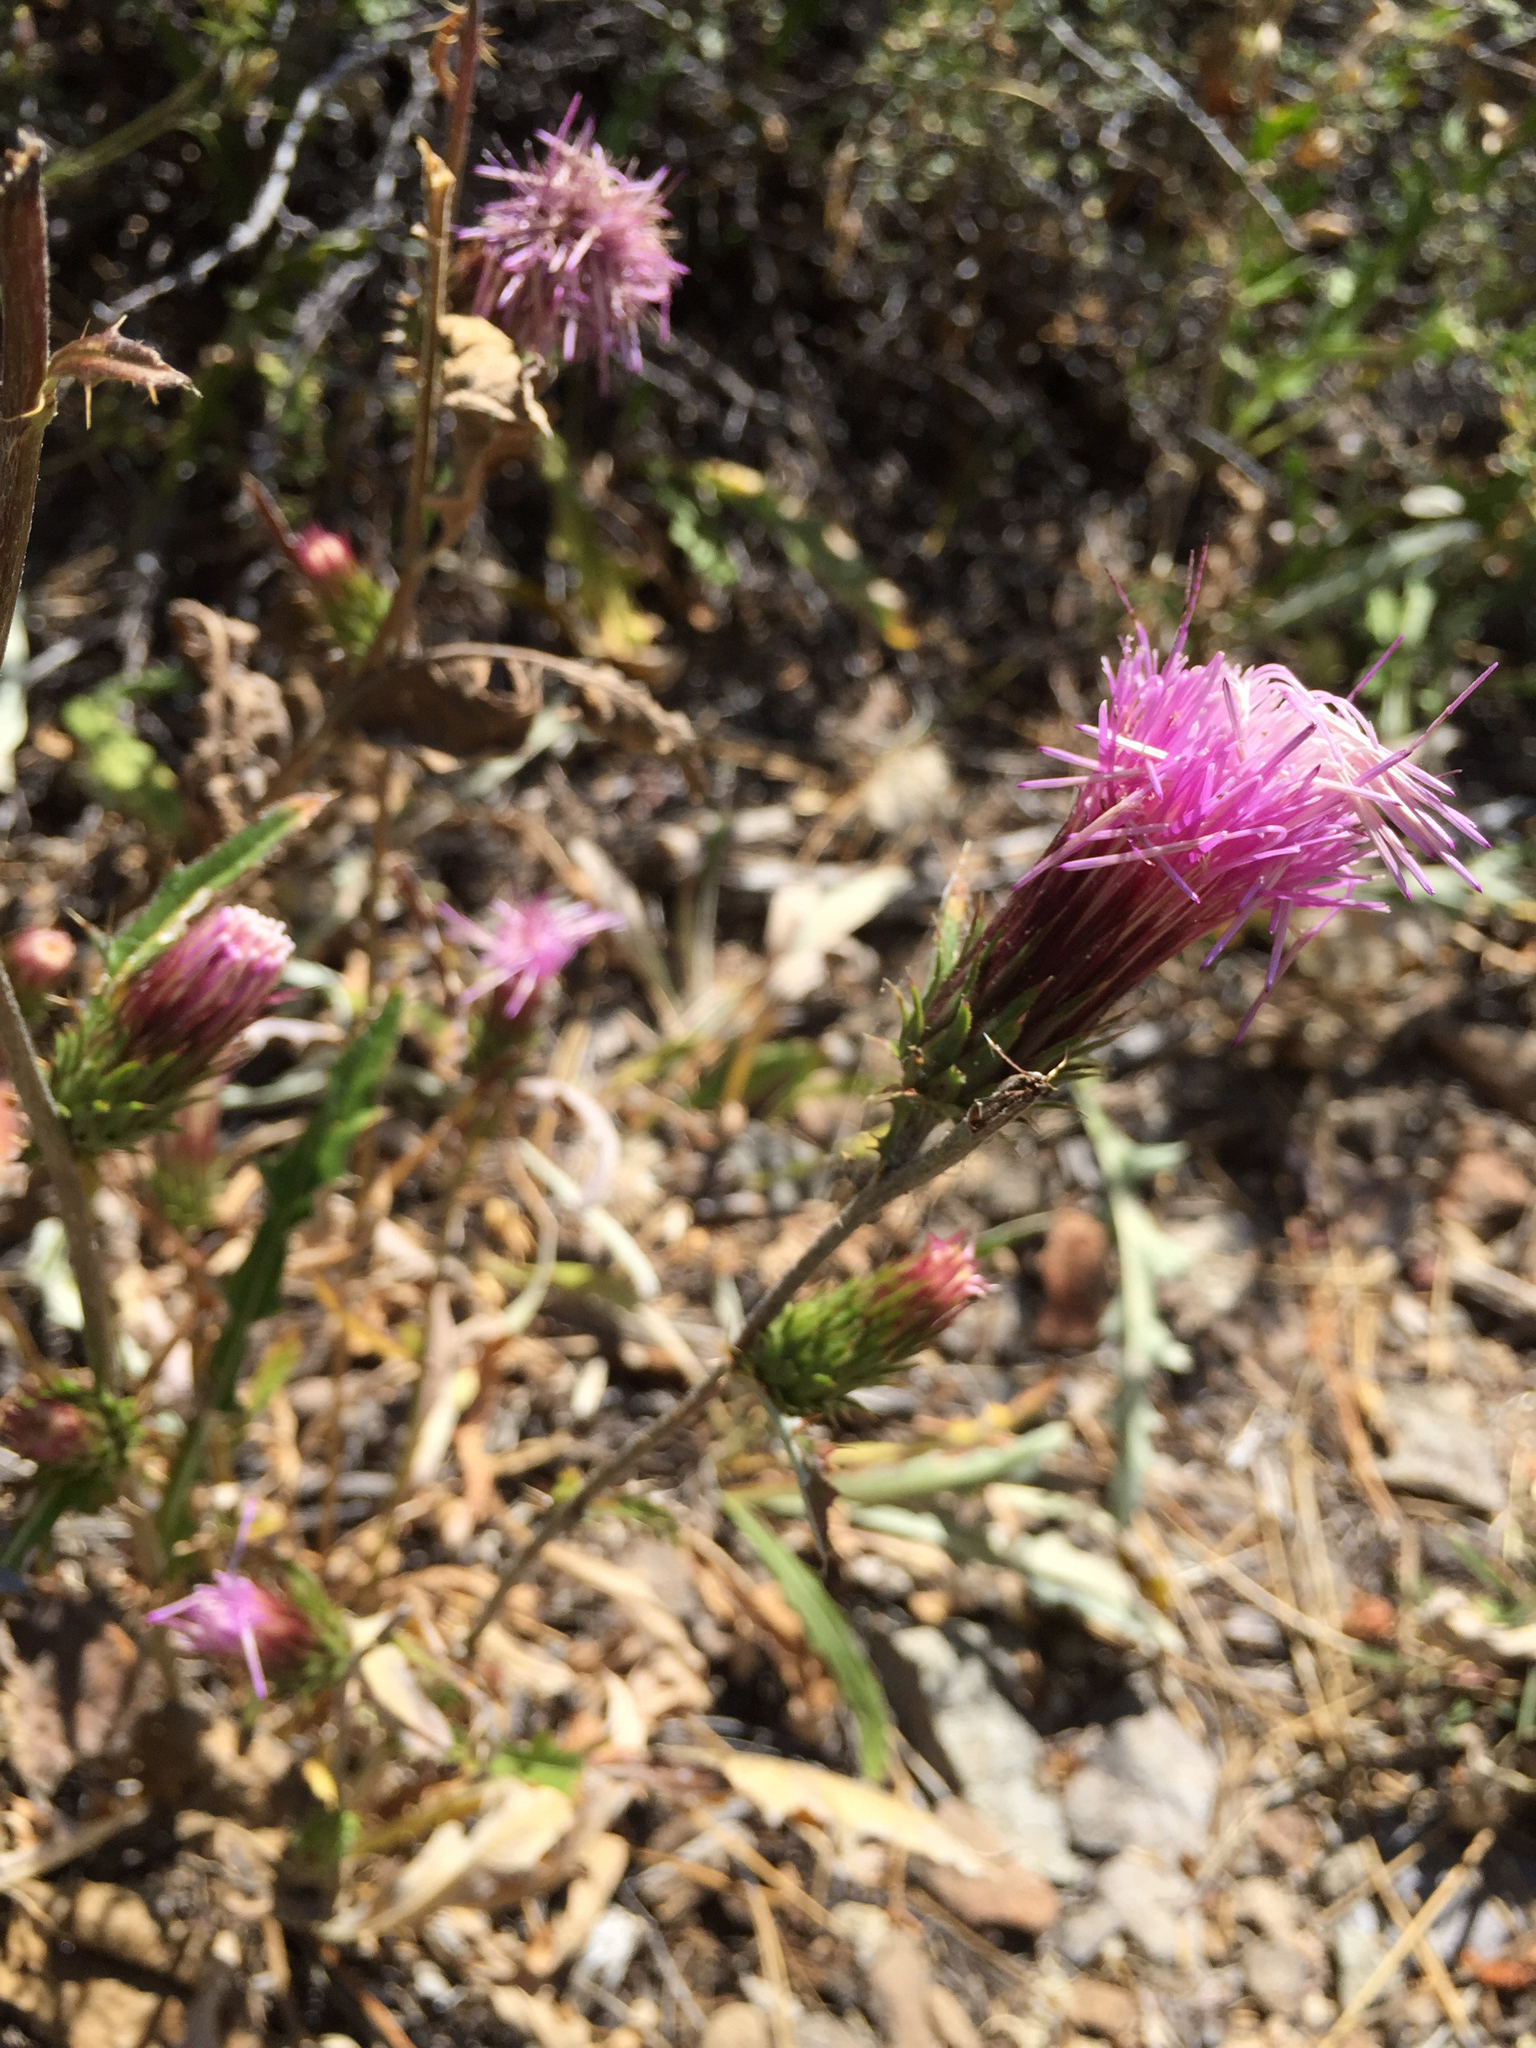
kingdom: Plantae
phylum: Tracheophyta
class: Magnoliopsida
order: Asterales
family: Asteraceae
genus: Cirsium
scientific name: Cirsium andersonii
